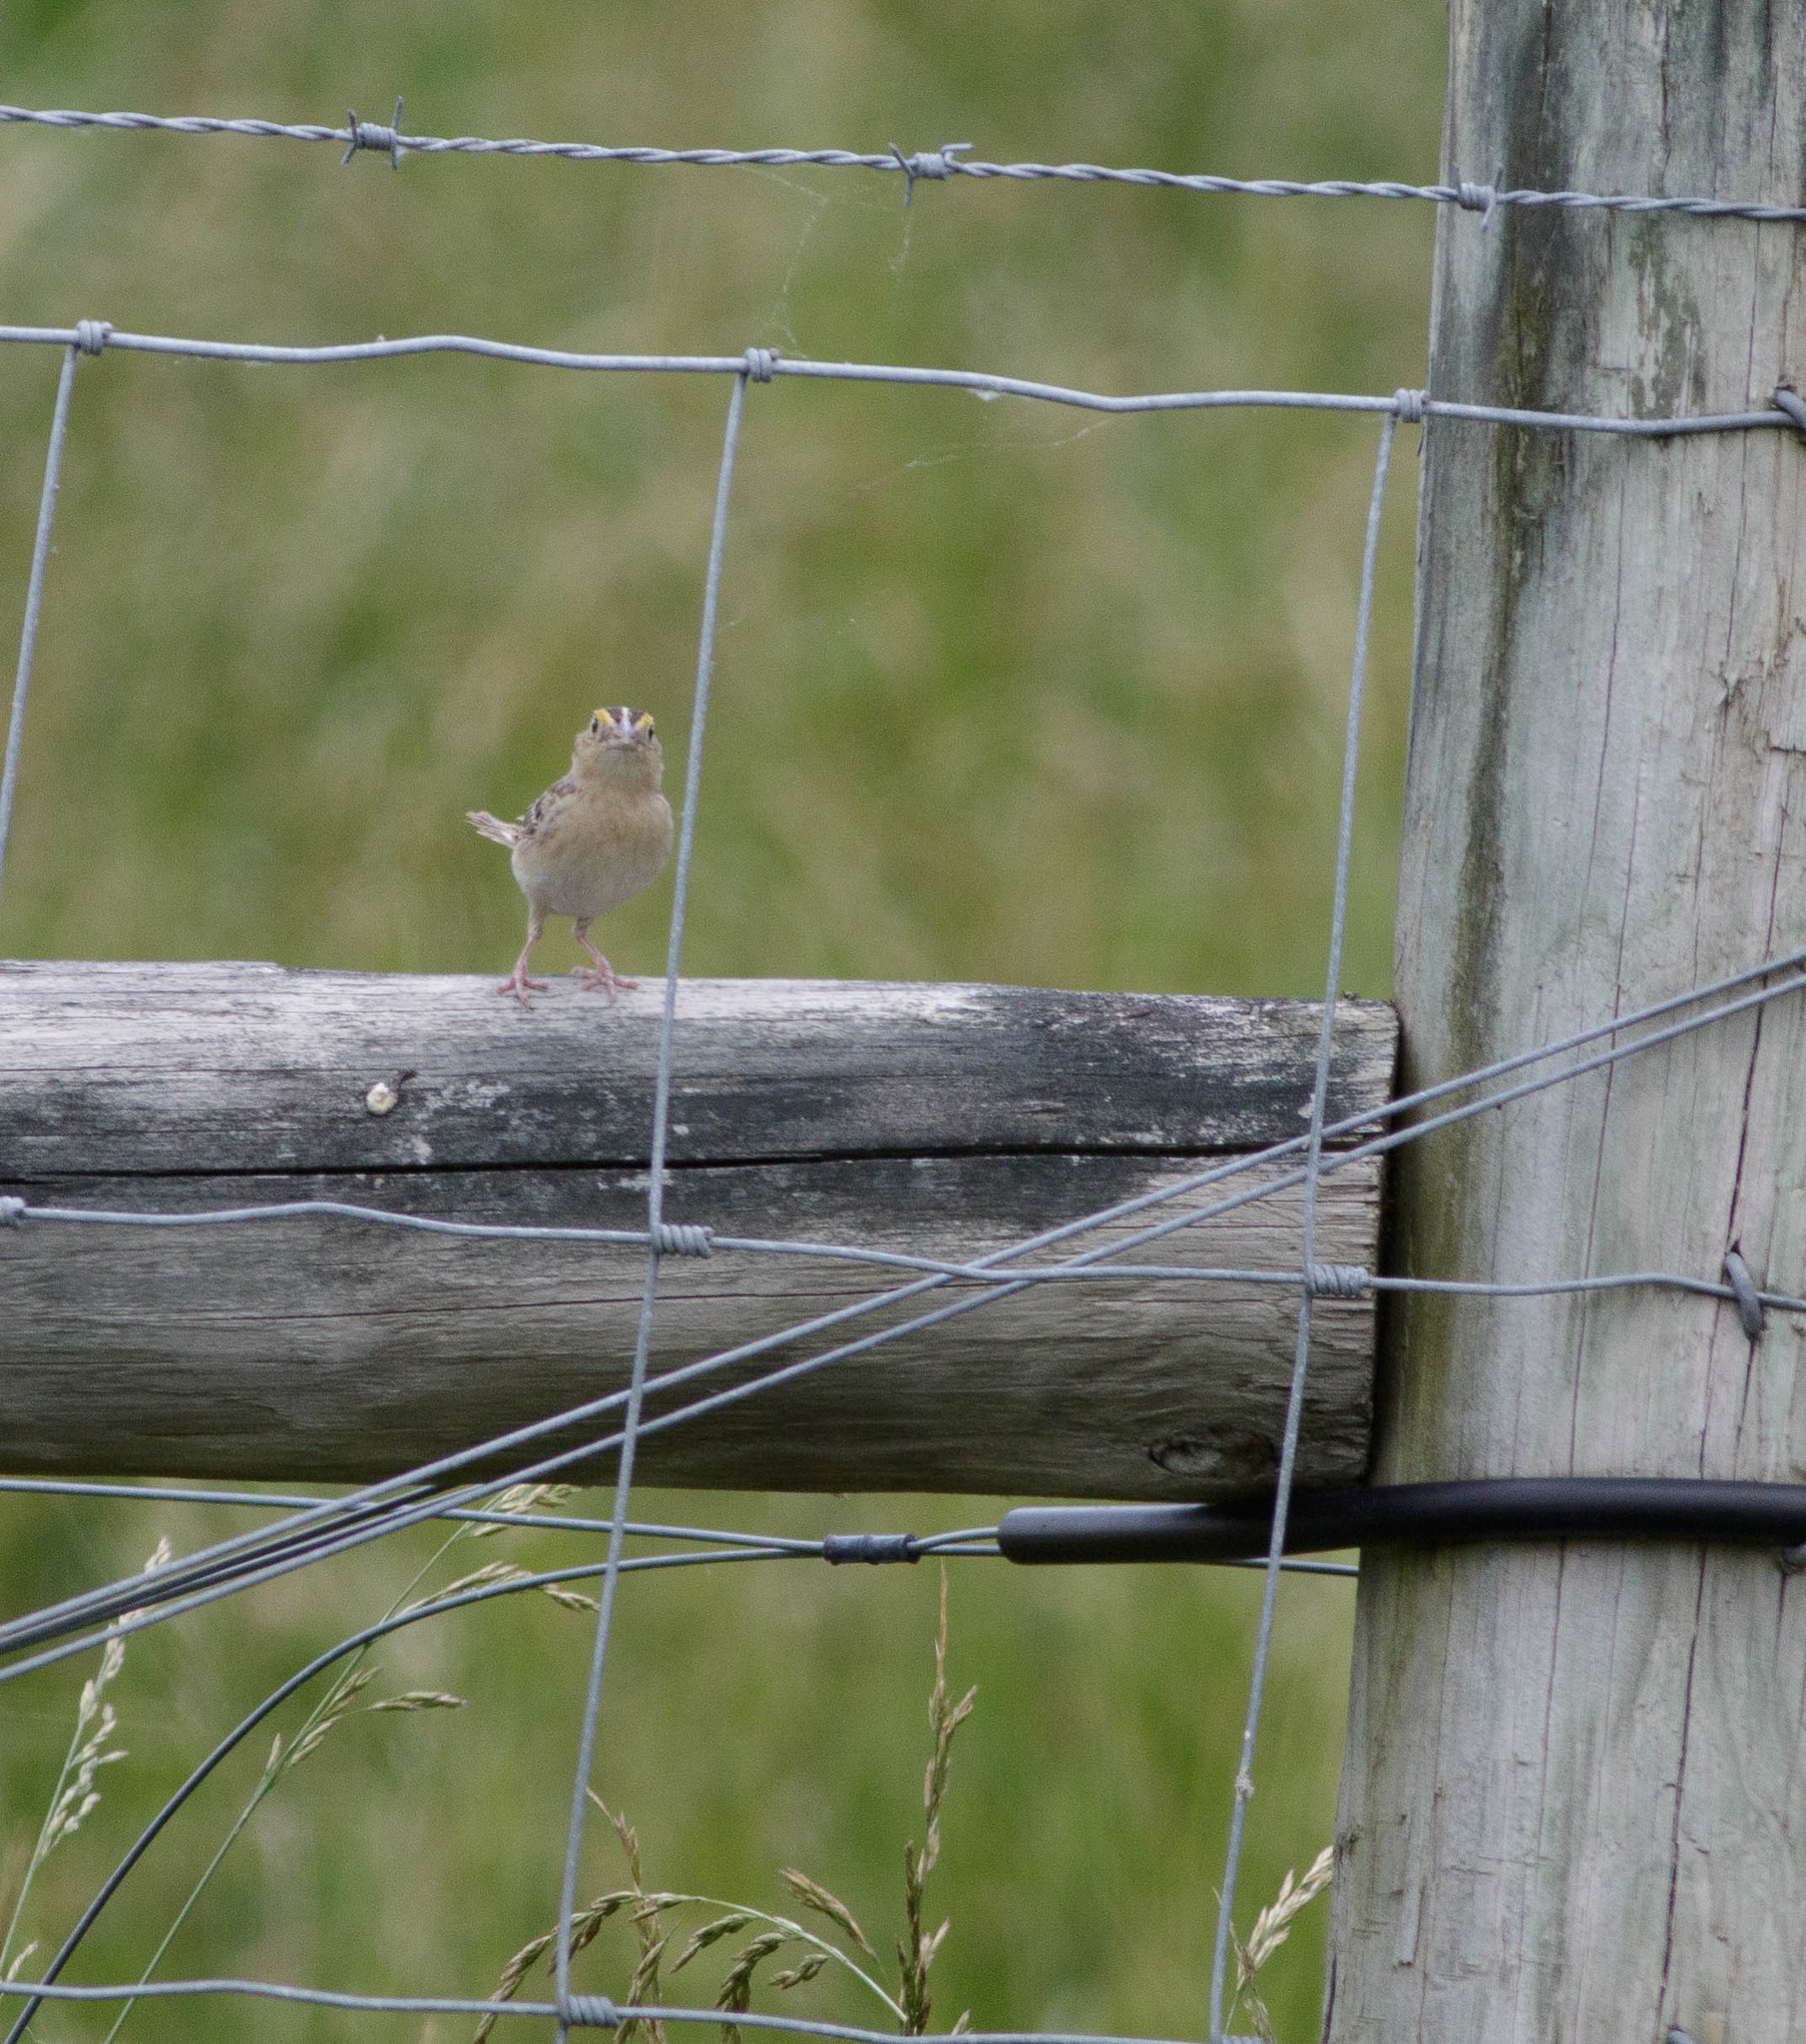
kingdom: Animalia
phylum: Chordata
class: Aves
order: Passeriformes
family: Passerellidae
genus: Ammodramus
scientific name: Ammodramus savannarum
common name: Grasshopper sparrow
